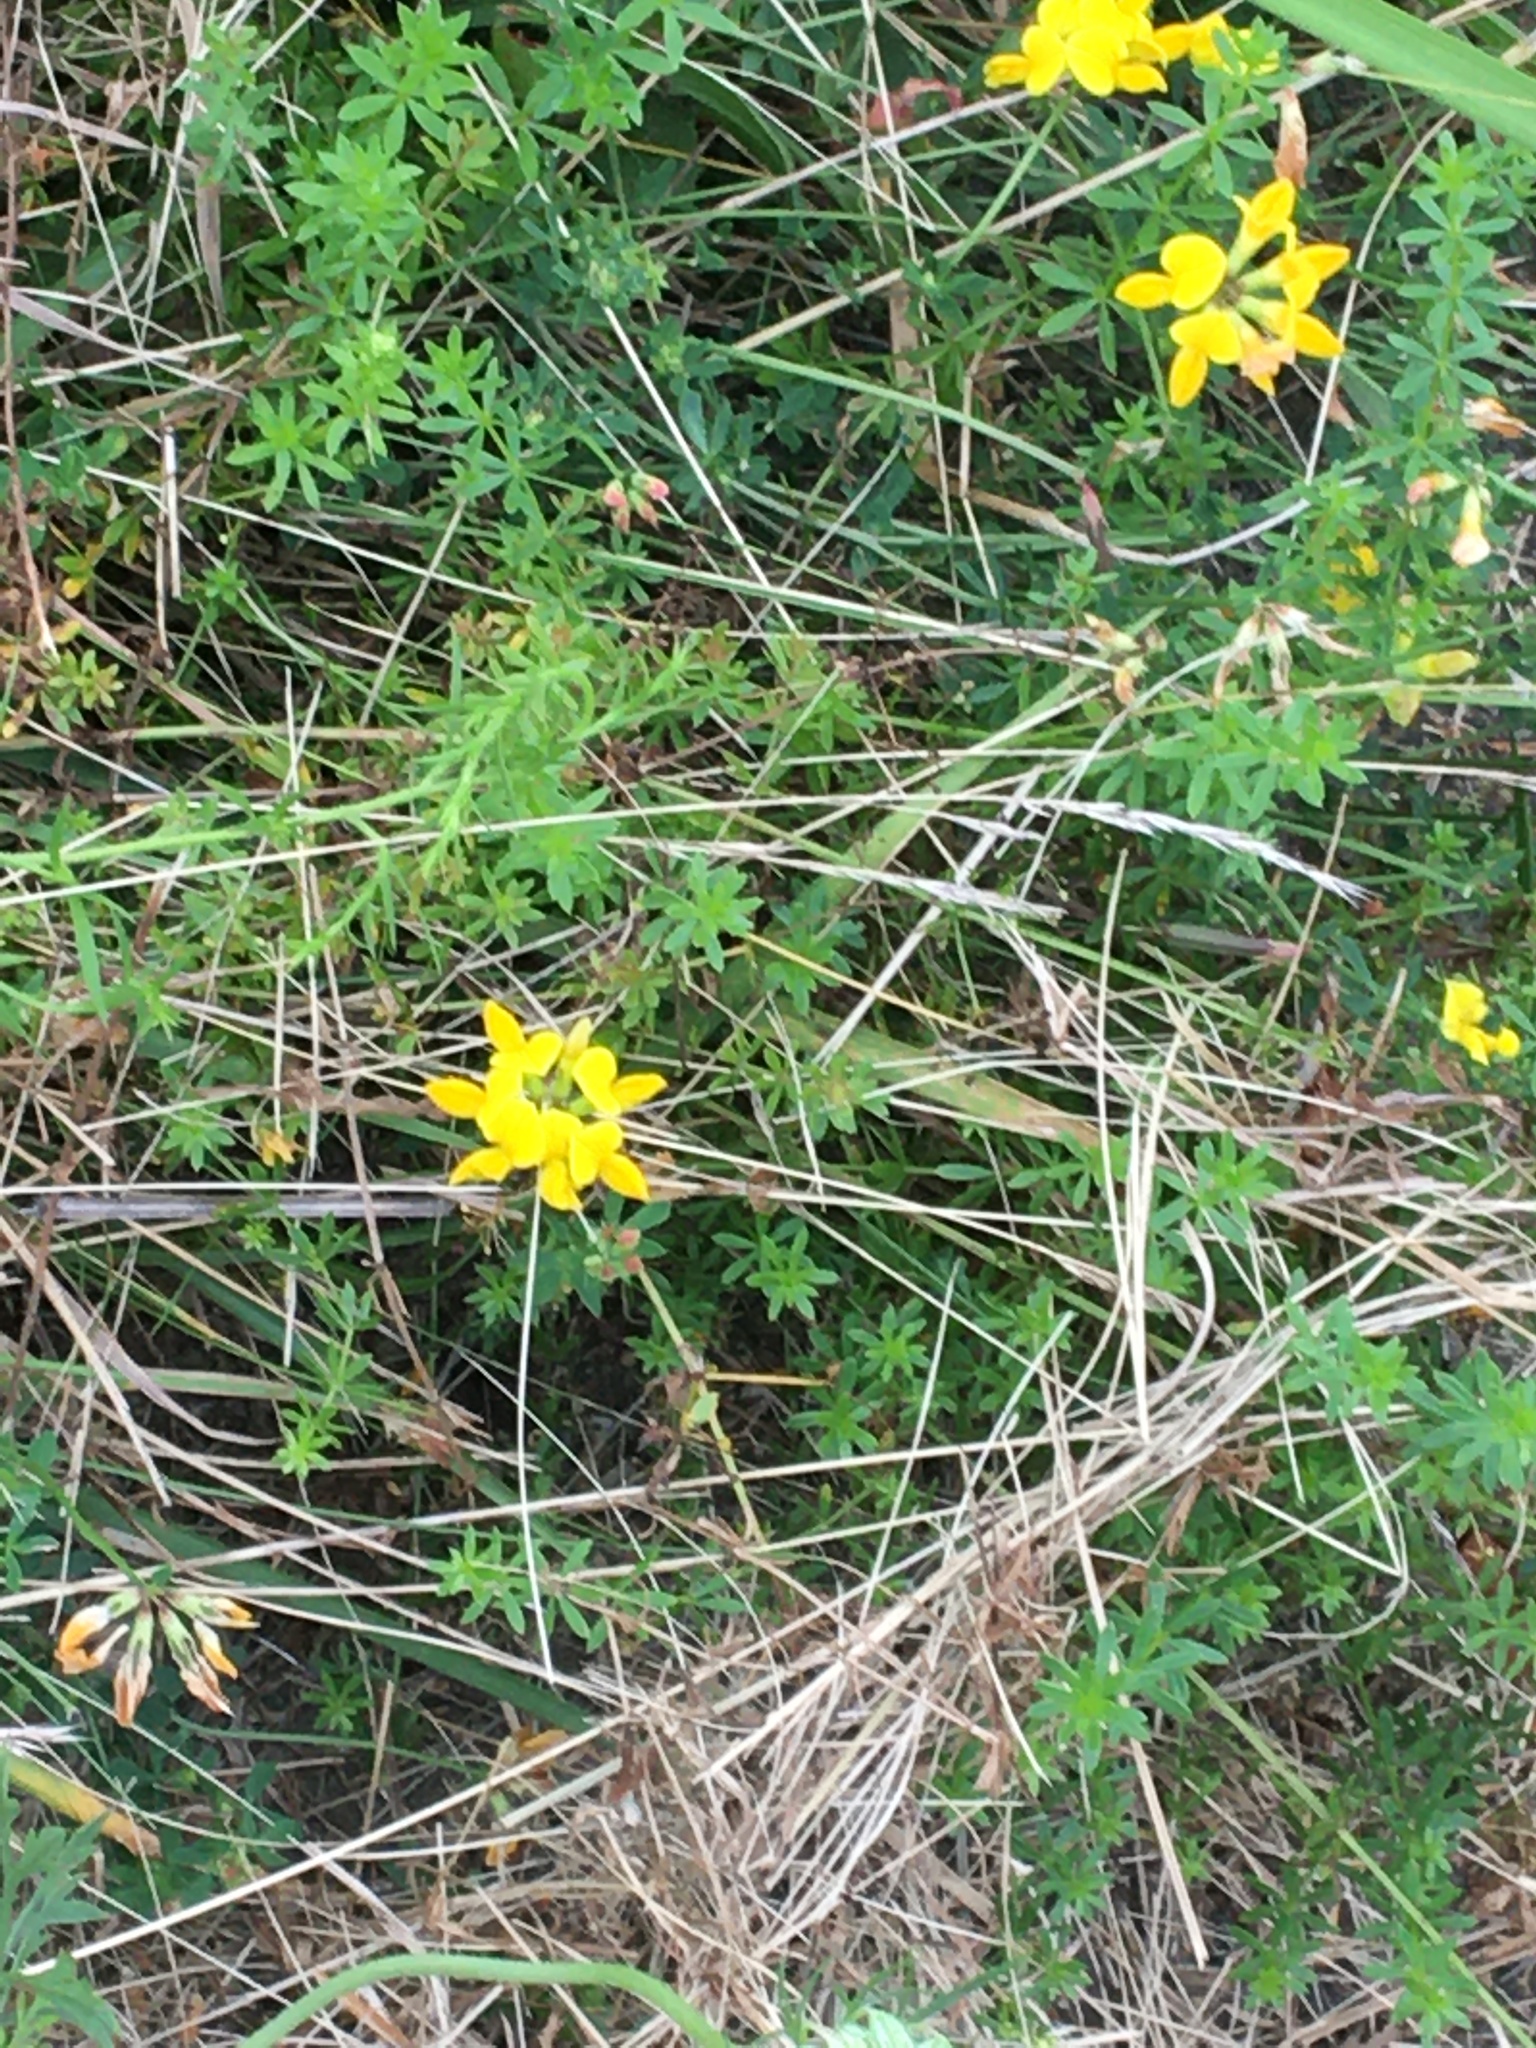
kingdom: Plantae
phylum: Tracheophyta
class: Magnoliopsida
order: Fabales
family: Fabaceae
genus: Lotus
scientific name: Lotus corniculatus
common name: Common bird's-foot-trefoil
